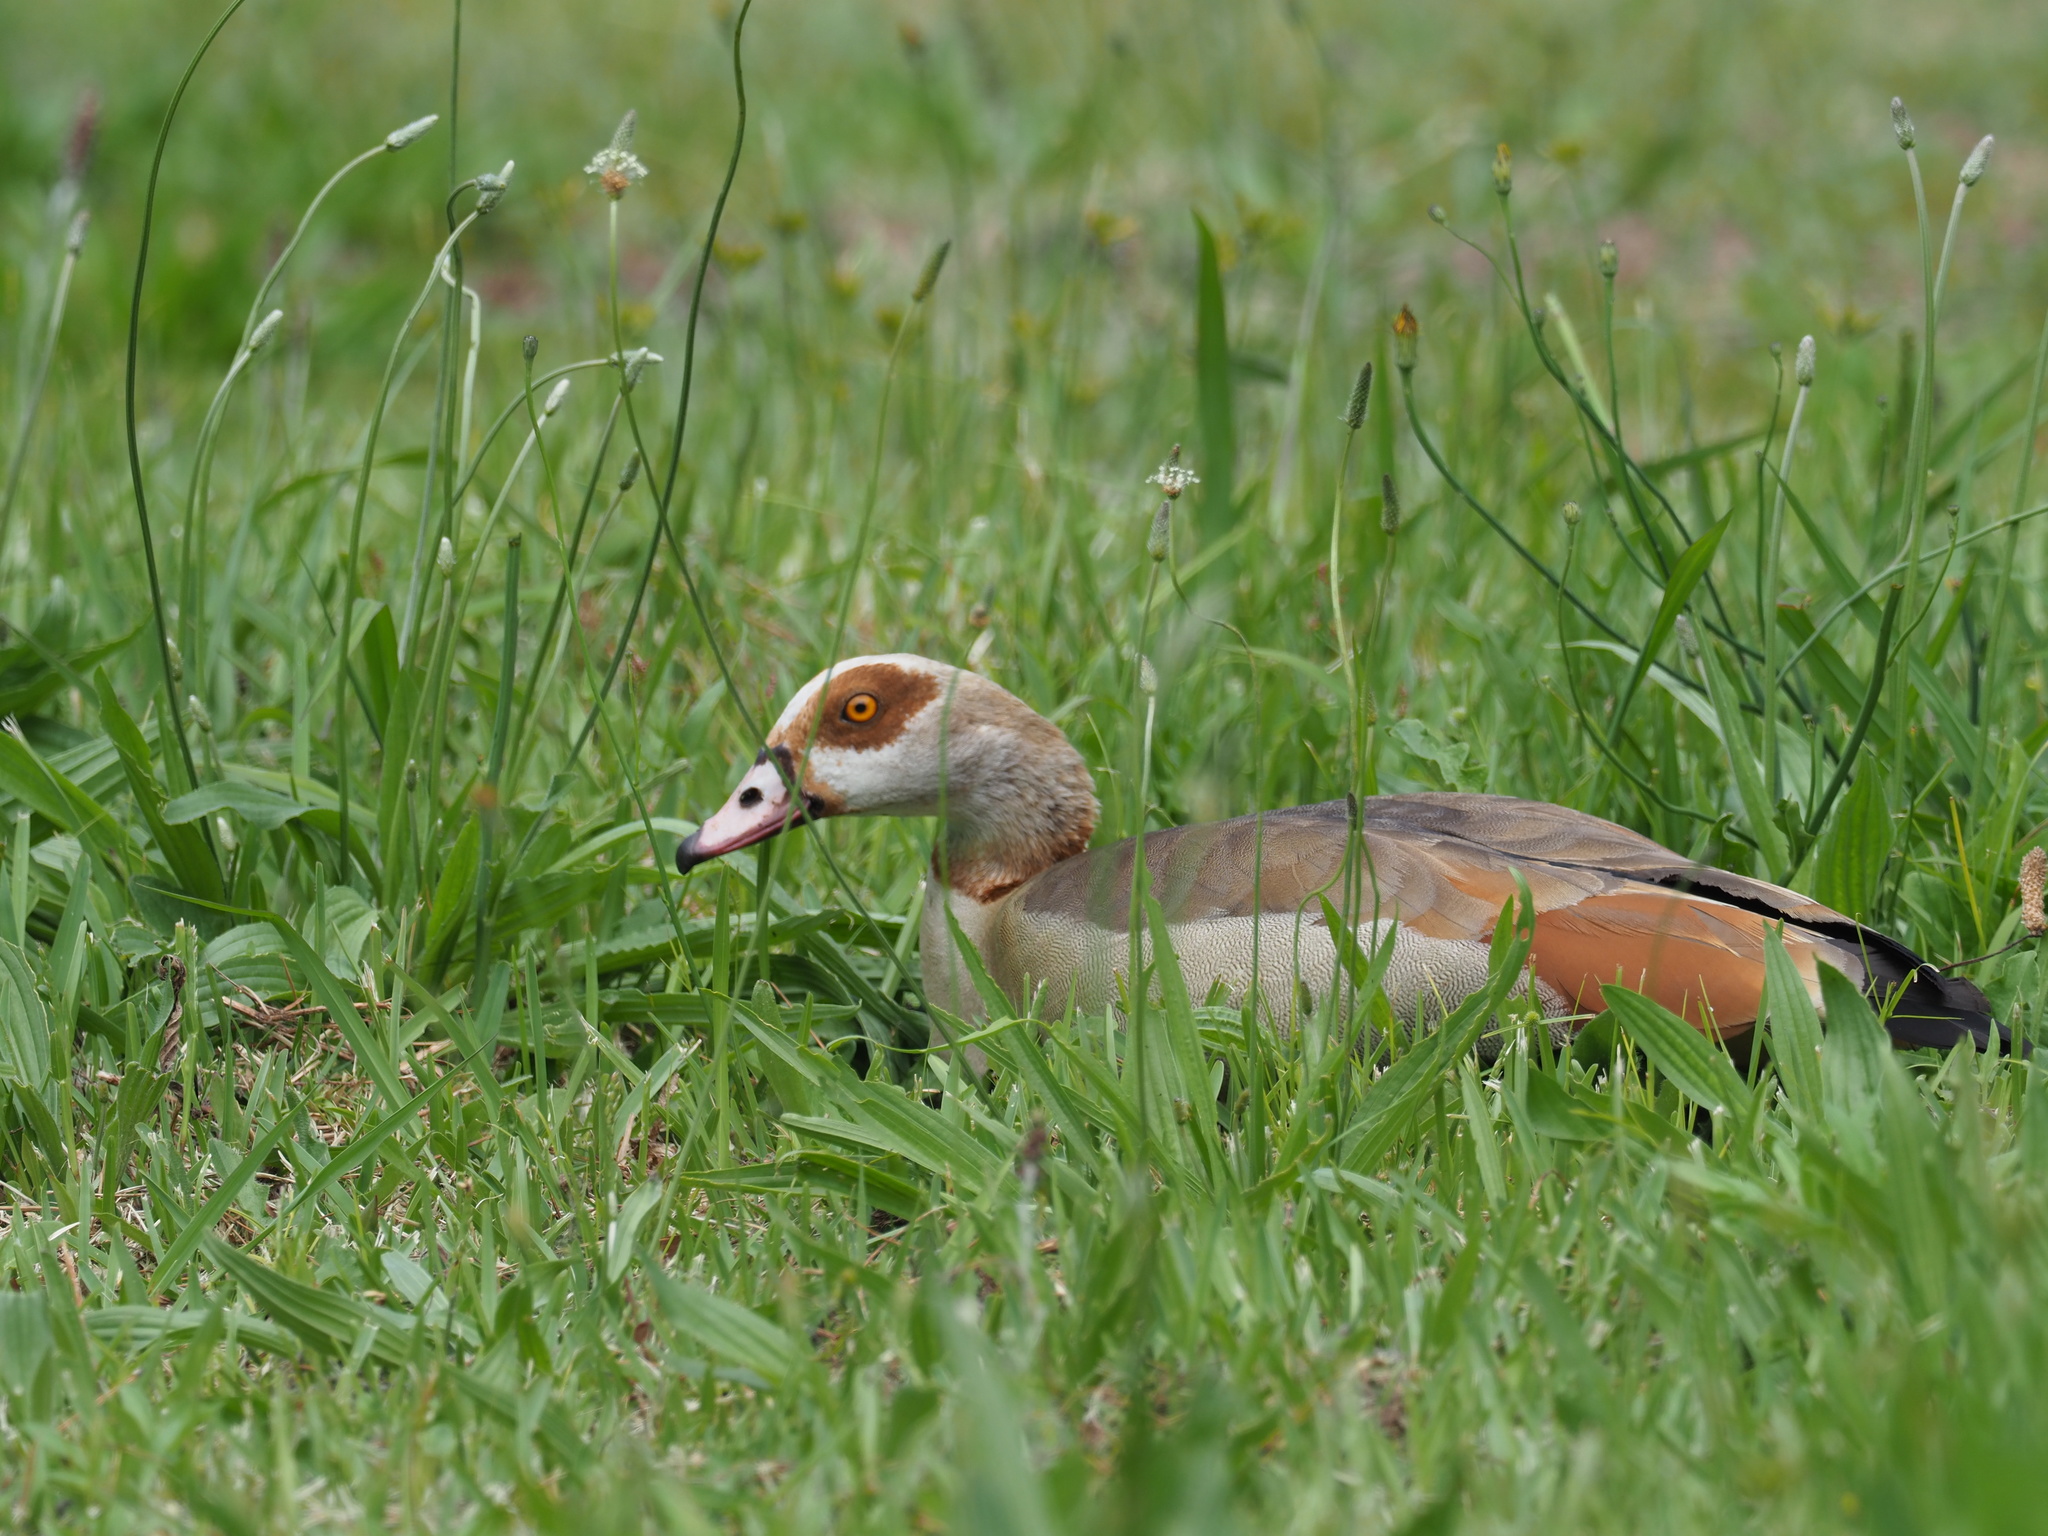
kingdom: Animalia
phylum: Chordata
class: Aves
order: Anseriformes
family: Anatidae
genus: Alopochen
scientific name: Alopochen aegyptiaca
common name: Egyptian goose
